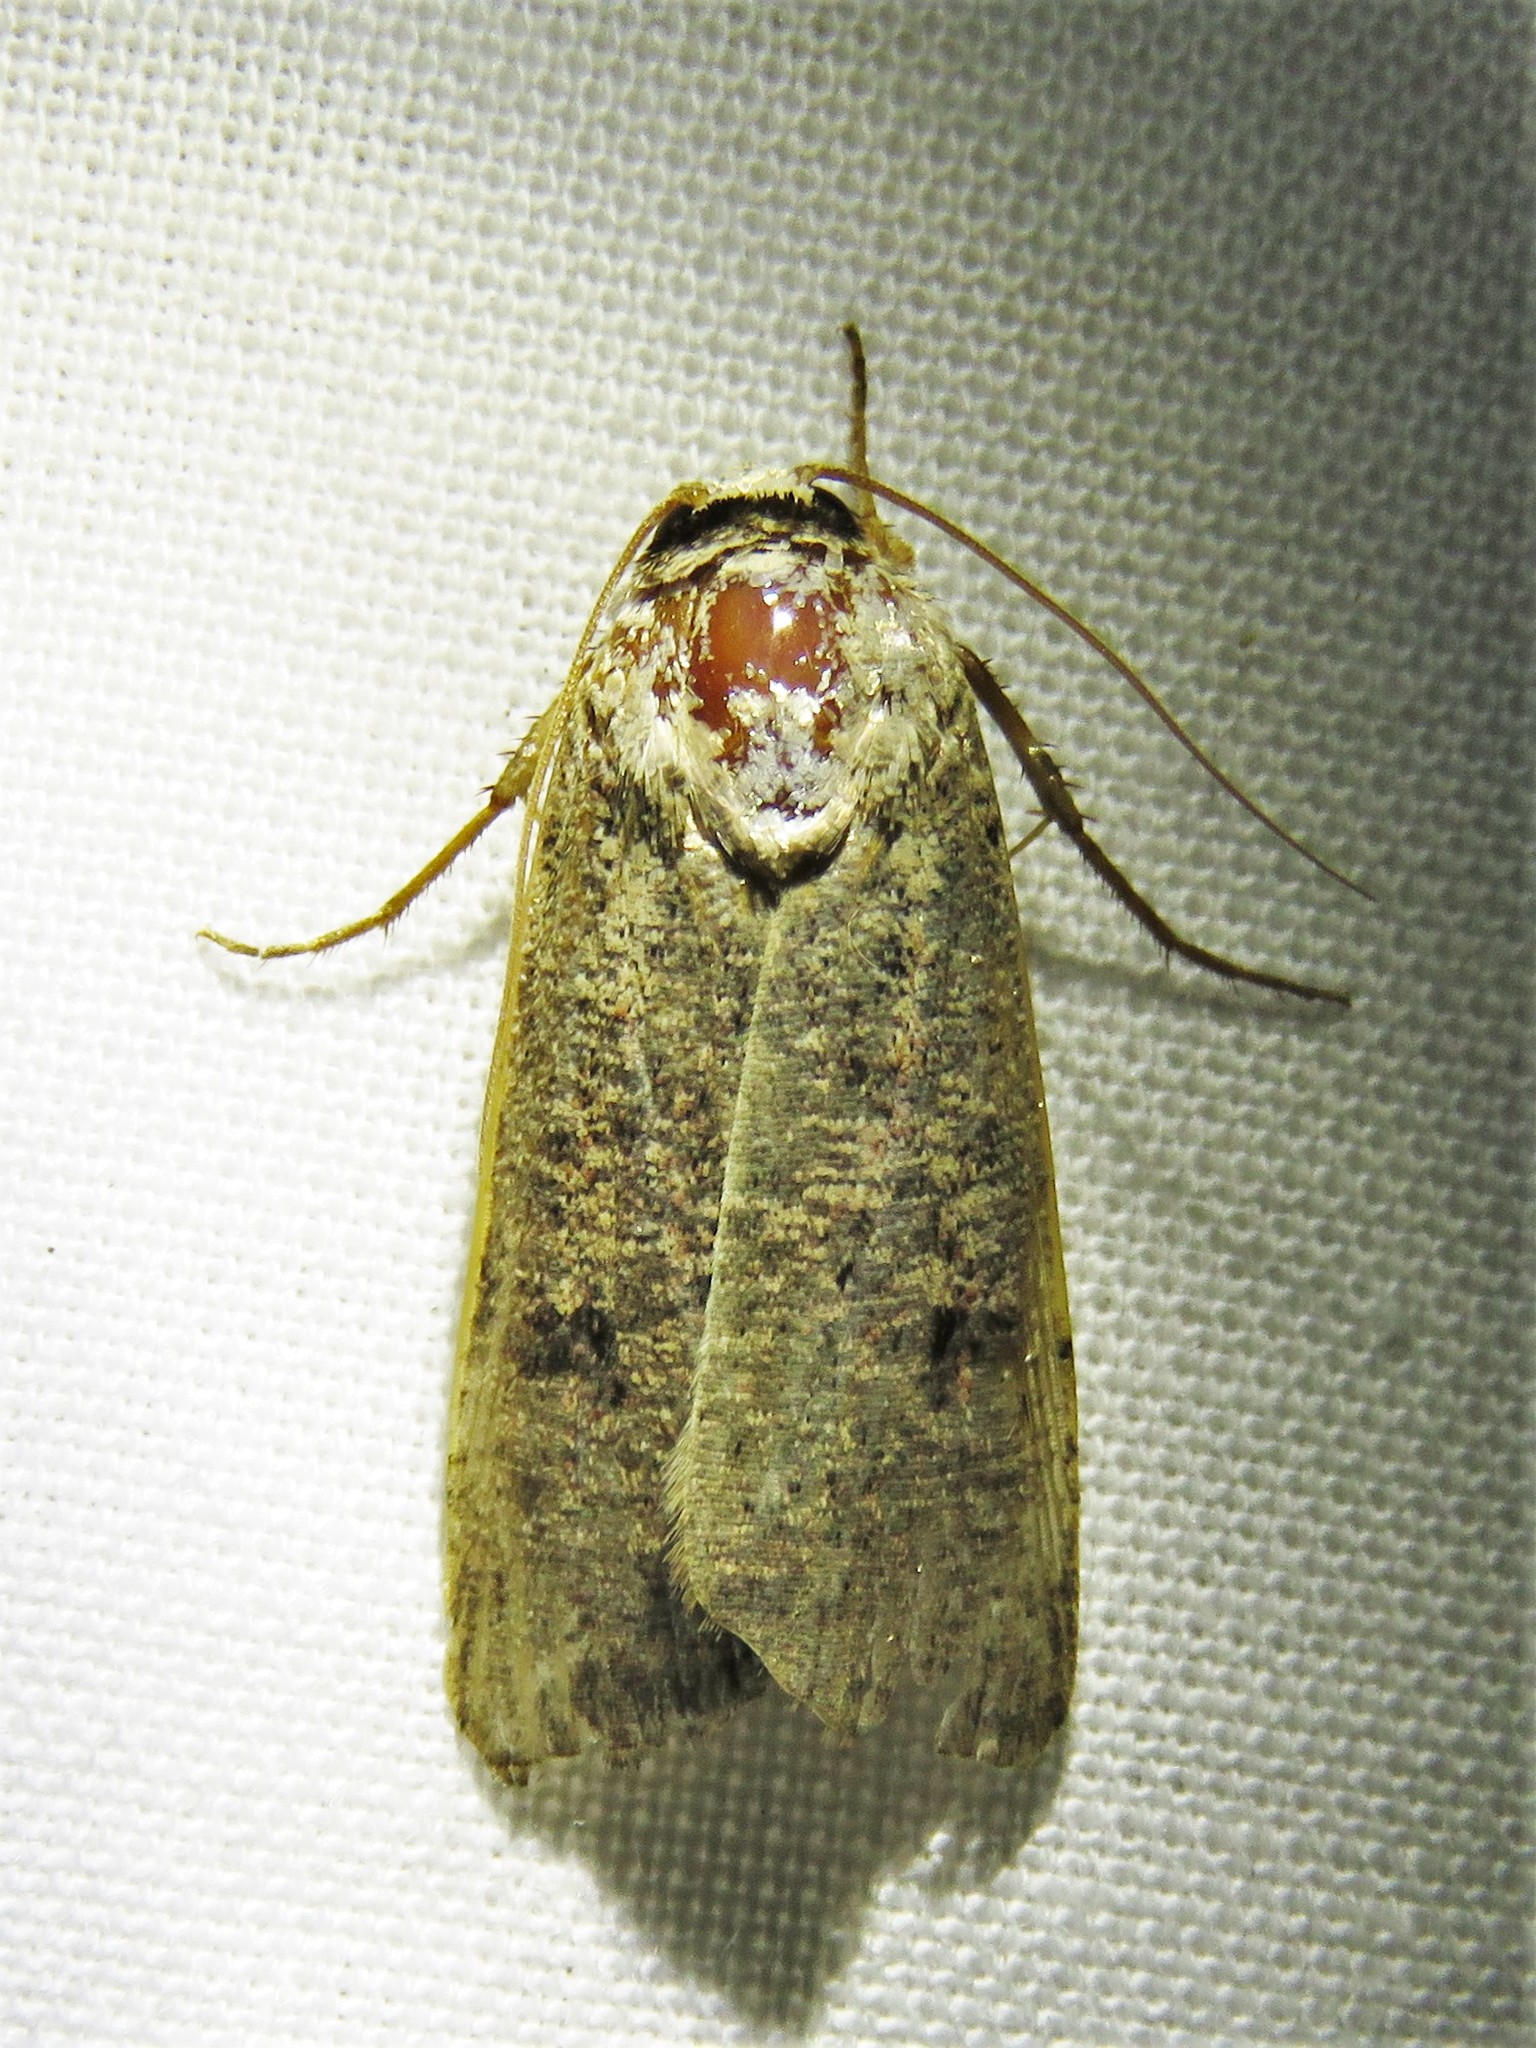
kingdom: Animalia
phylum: Arthropoda
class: Insecta
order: Lepidoptera
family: Noctuidae
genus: Anicla
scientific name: Anicla infecta
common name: Green cutworm
